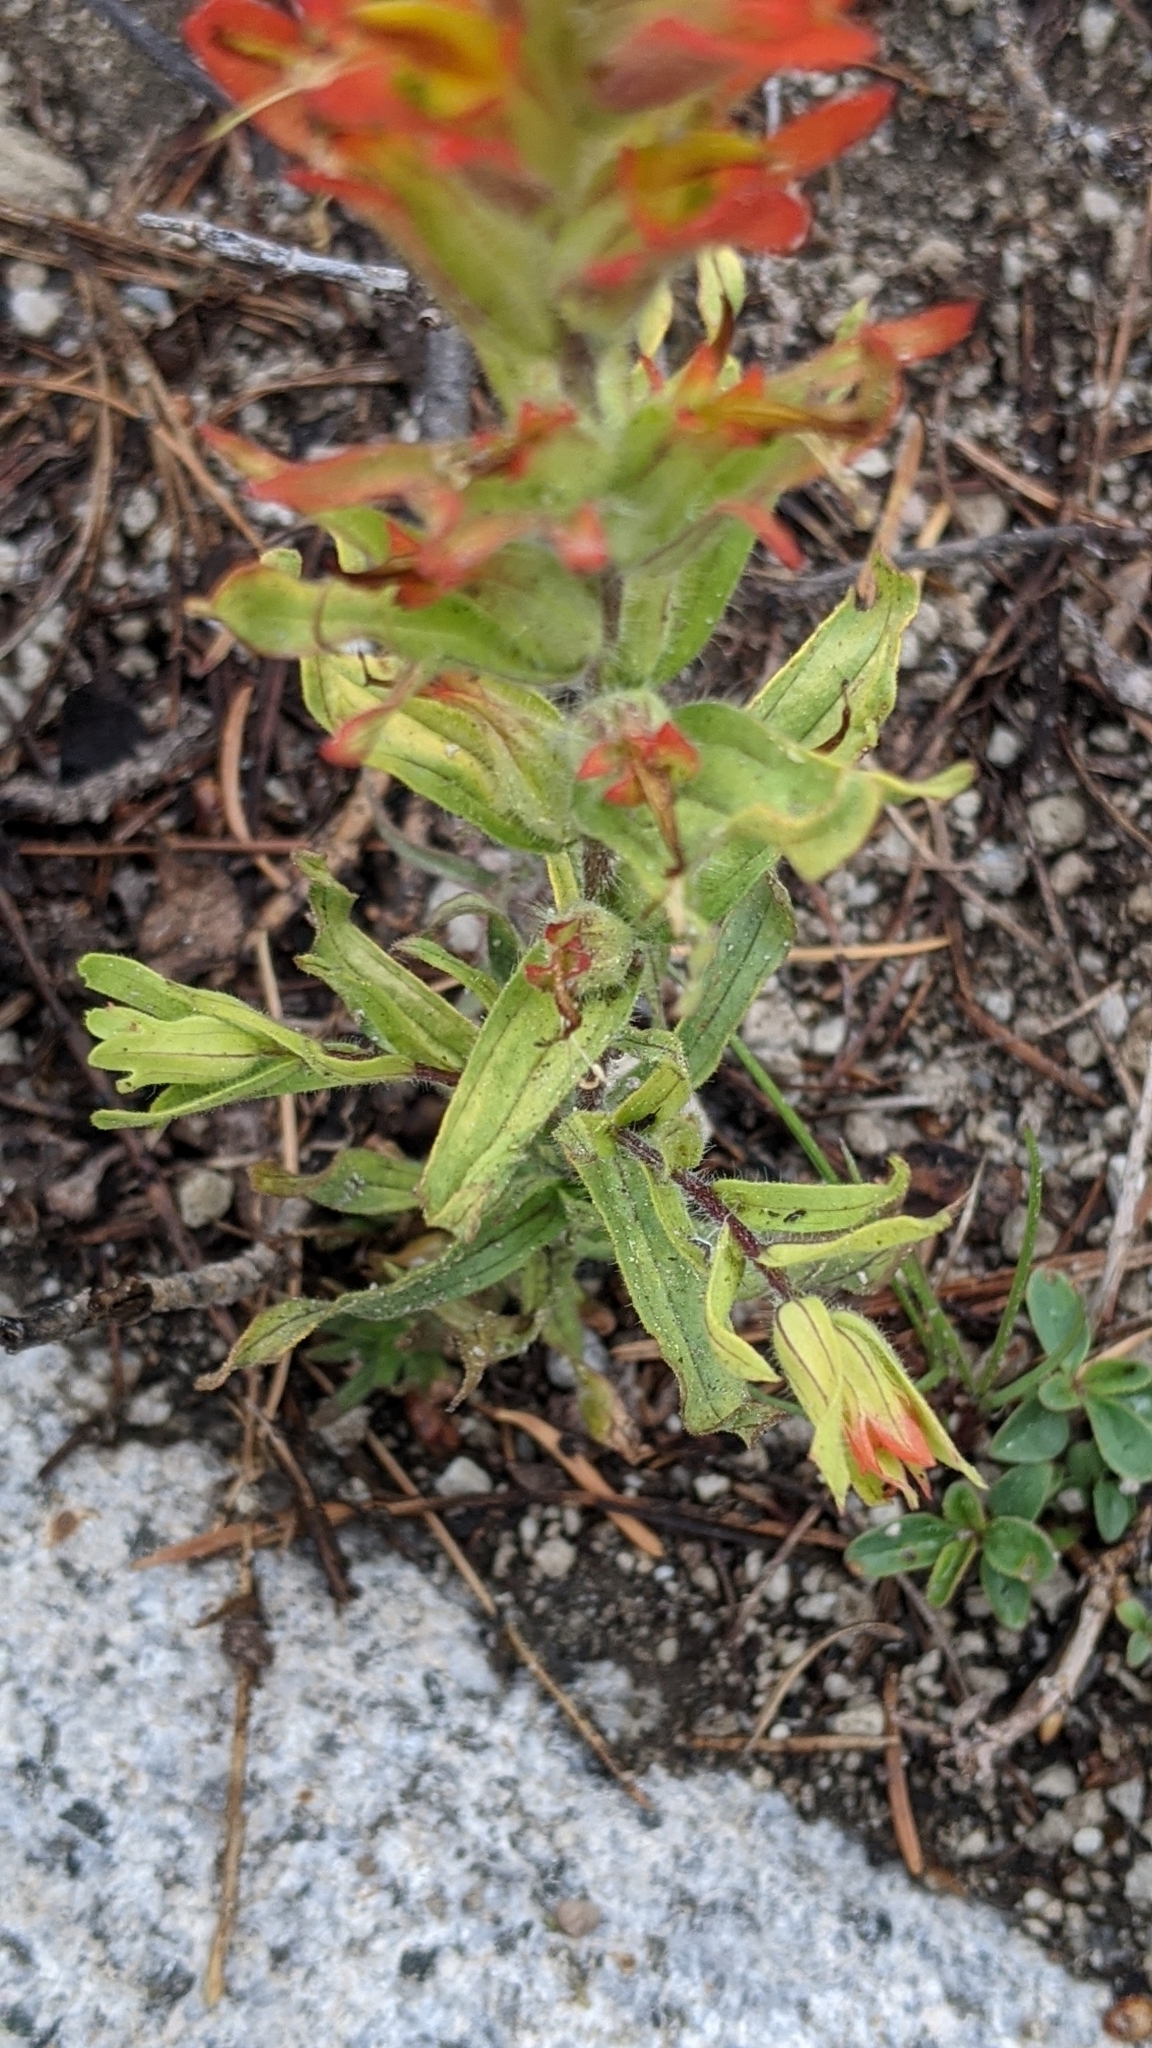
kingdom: Plantae
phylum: Tracheophyta
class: Magnoliopsida
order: Lamiales
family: Orobanchaceae
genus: Castilleja
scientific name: Castilleja chromosa
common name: Desert paintbrush
